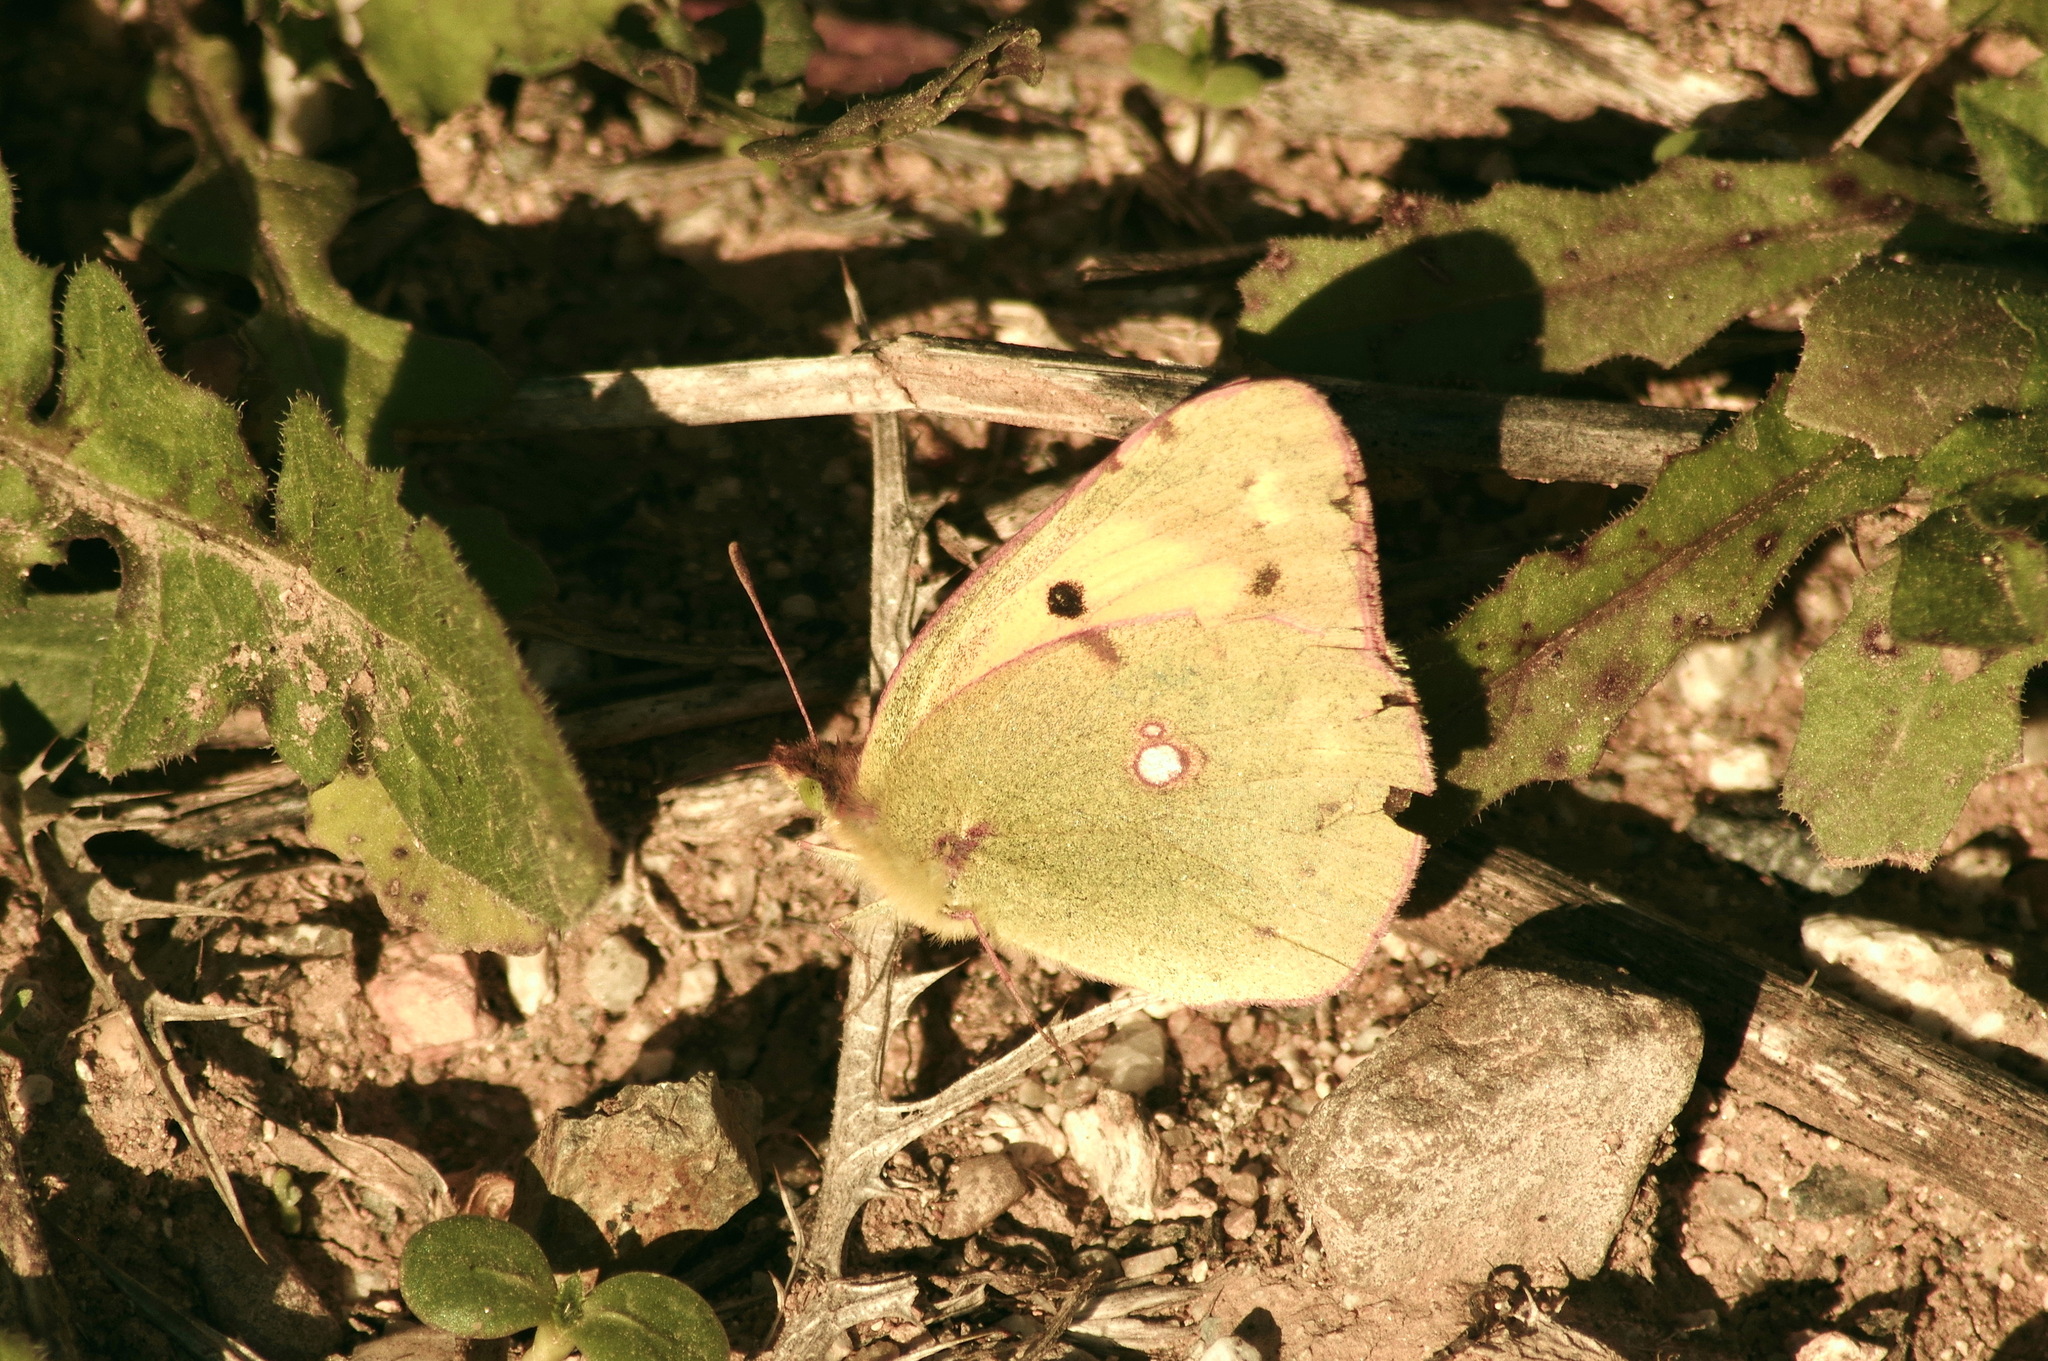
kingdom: Animalia
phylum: Arthropoda
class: Insecta
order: Lepidoptera
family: Pieridae
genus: Colias
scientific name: Colias croceus
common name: Clouded yellow
